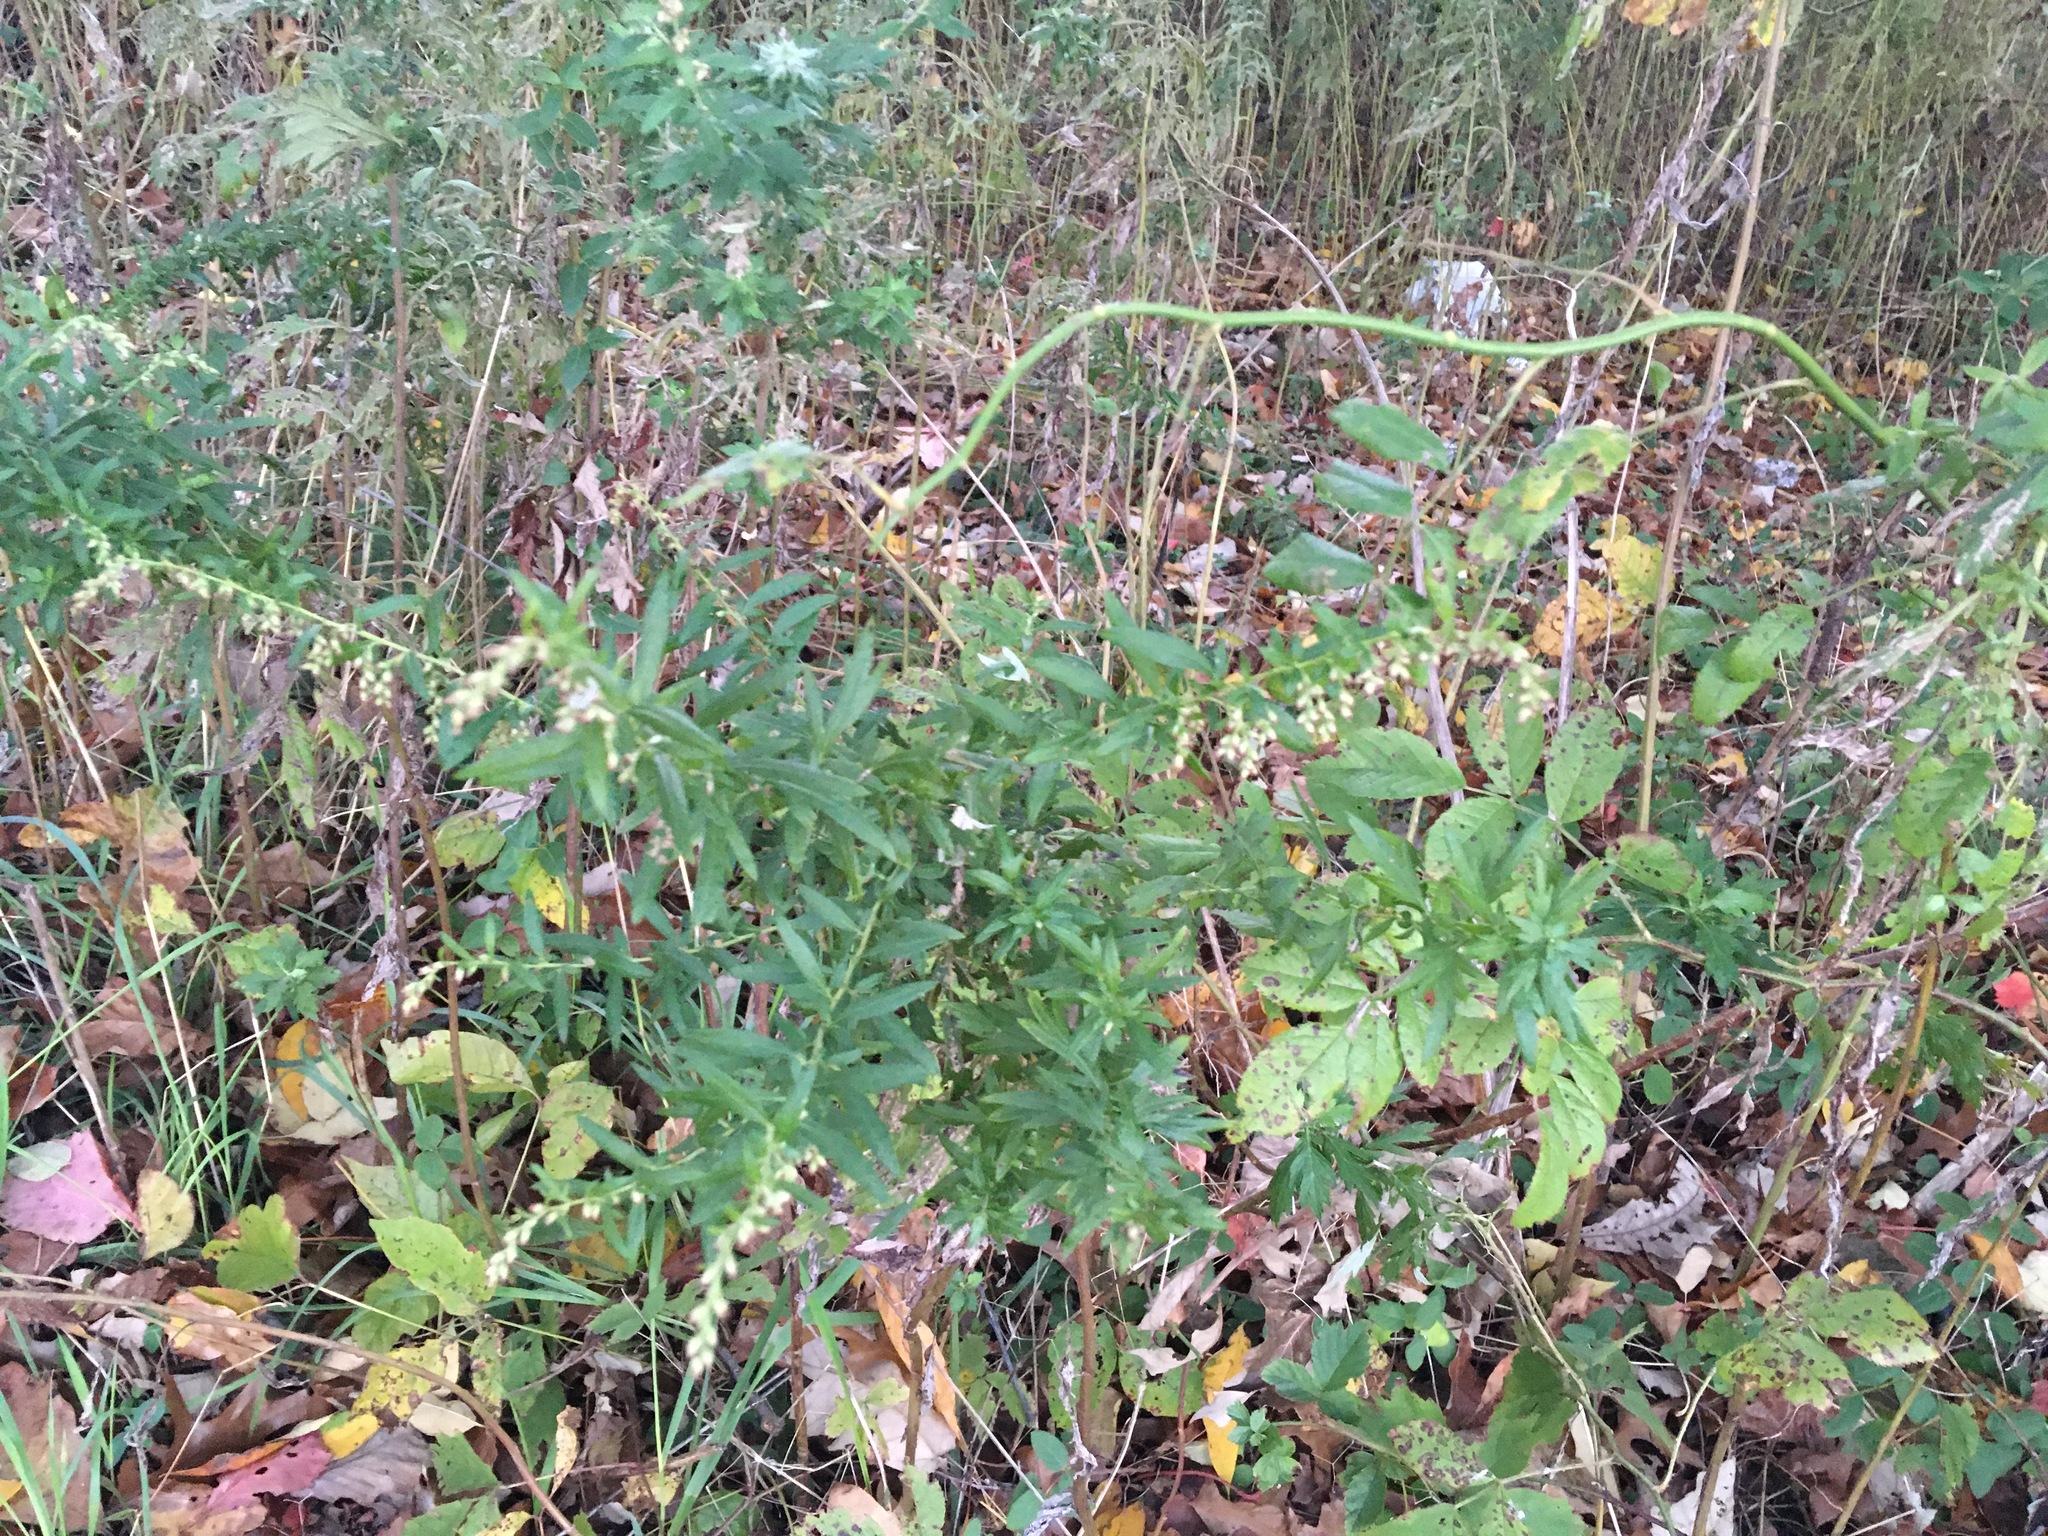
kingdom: Plantae
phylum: Tracheophyta
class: Magnoliopsida
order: Asterales
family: Asteraceae
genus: Artemisia
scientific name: Artemisia vulgaris
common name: Mugwort
